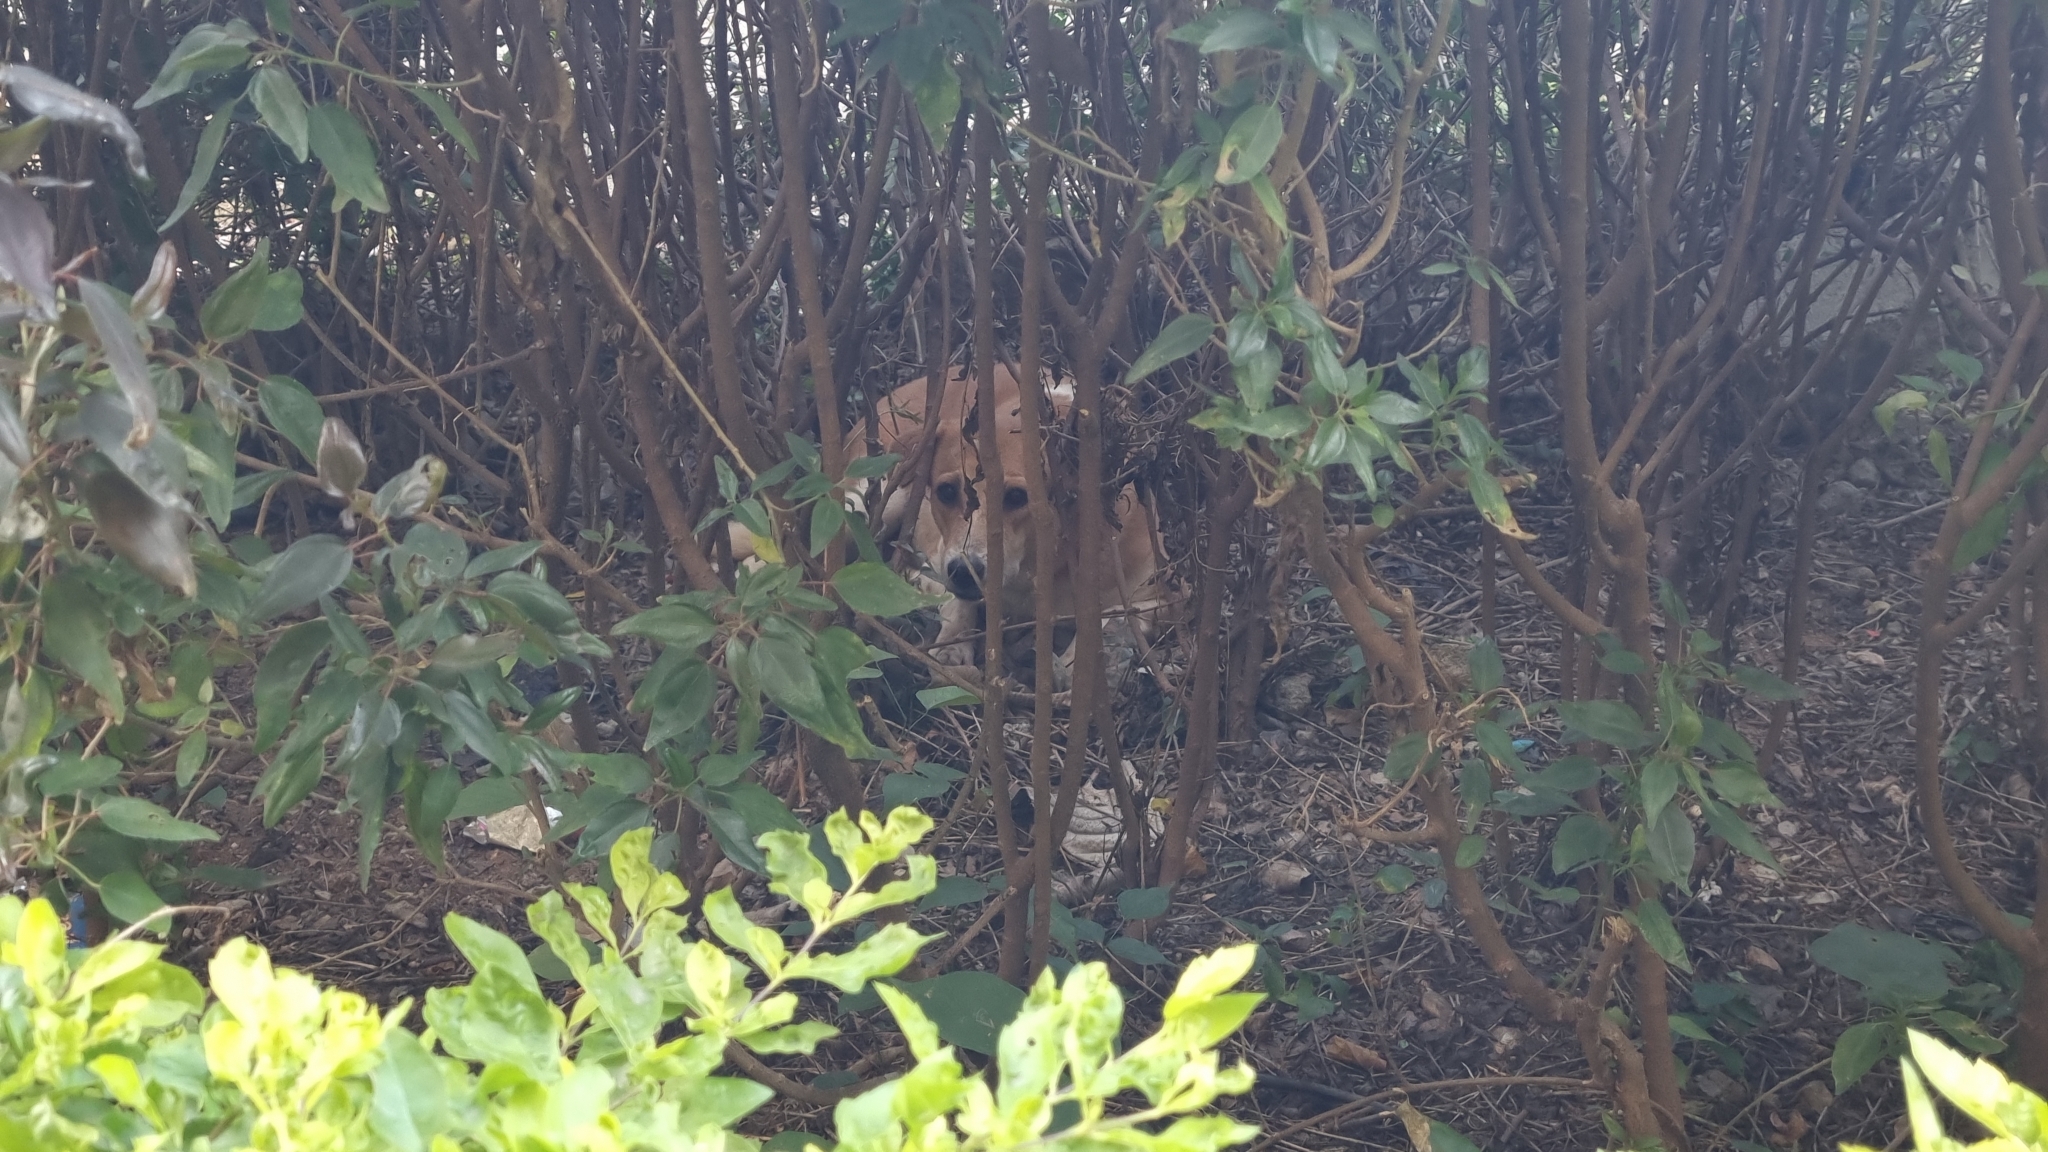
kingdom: Animalia
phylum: Chordata
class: Mammalia
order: Carnivora
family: Canidae
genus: Canis
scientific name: Canis lupus
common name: Gray wolf
